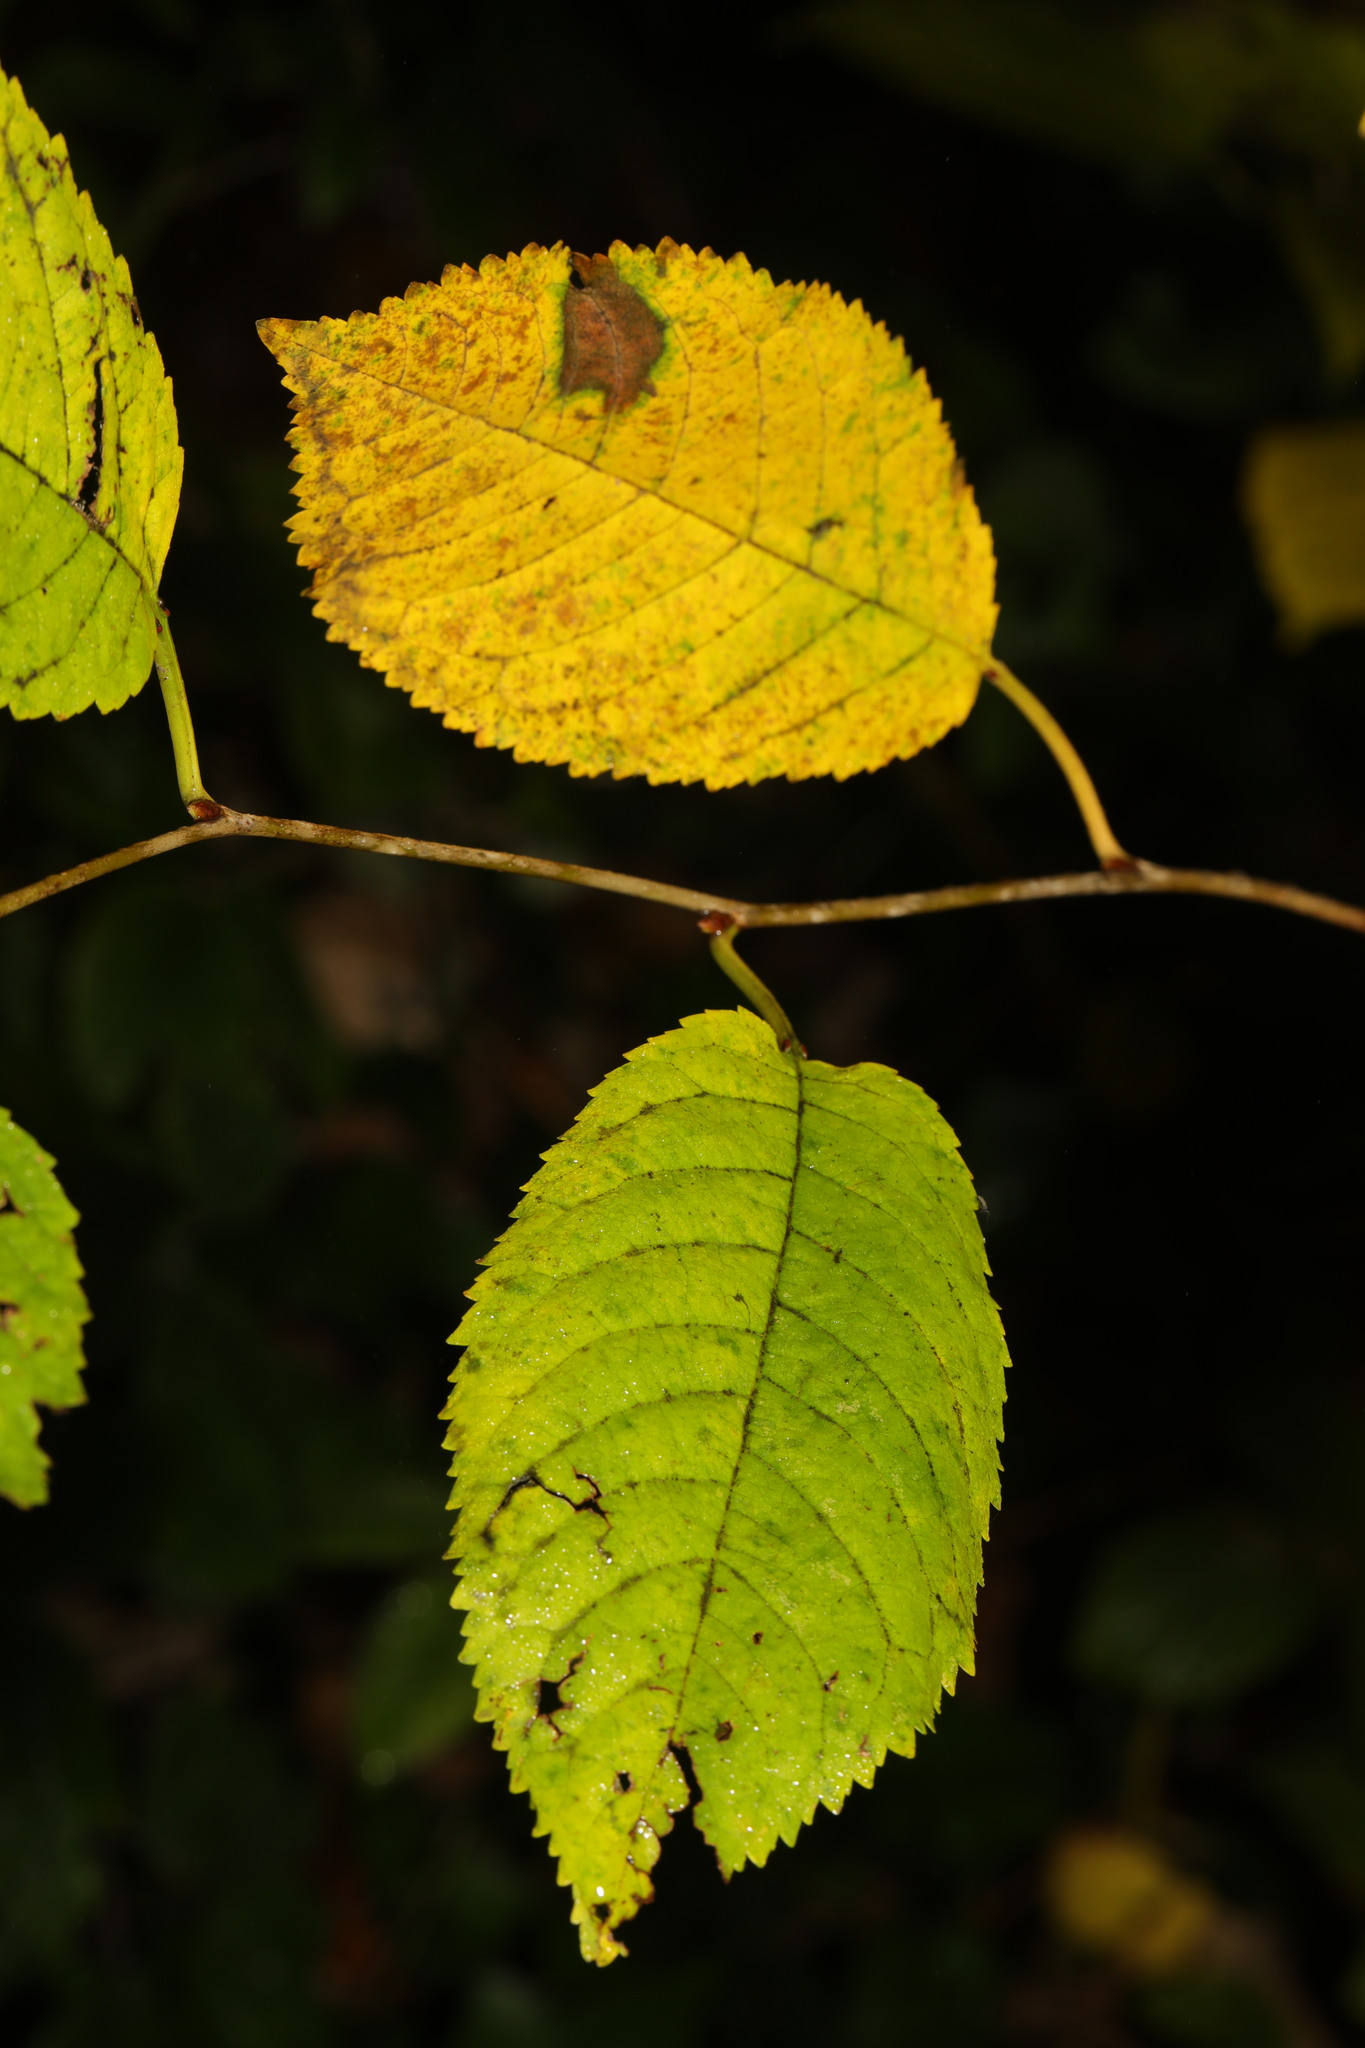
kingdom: Plantae
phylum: Tracheophyta
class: Magnoliopsida
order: Rosales
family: Rosaceae
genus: Prunus
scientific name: Prunus avium
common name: Sweet cherry
